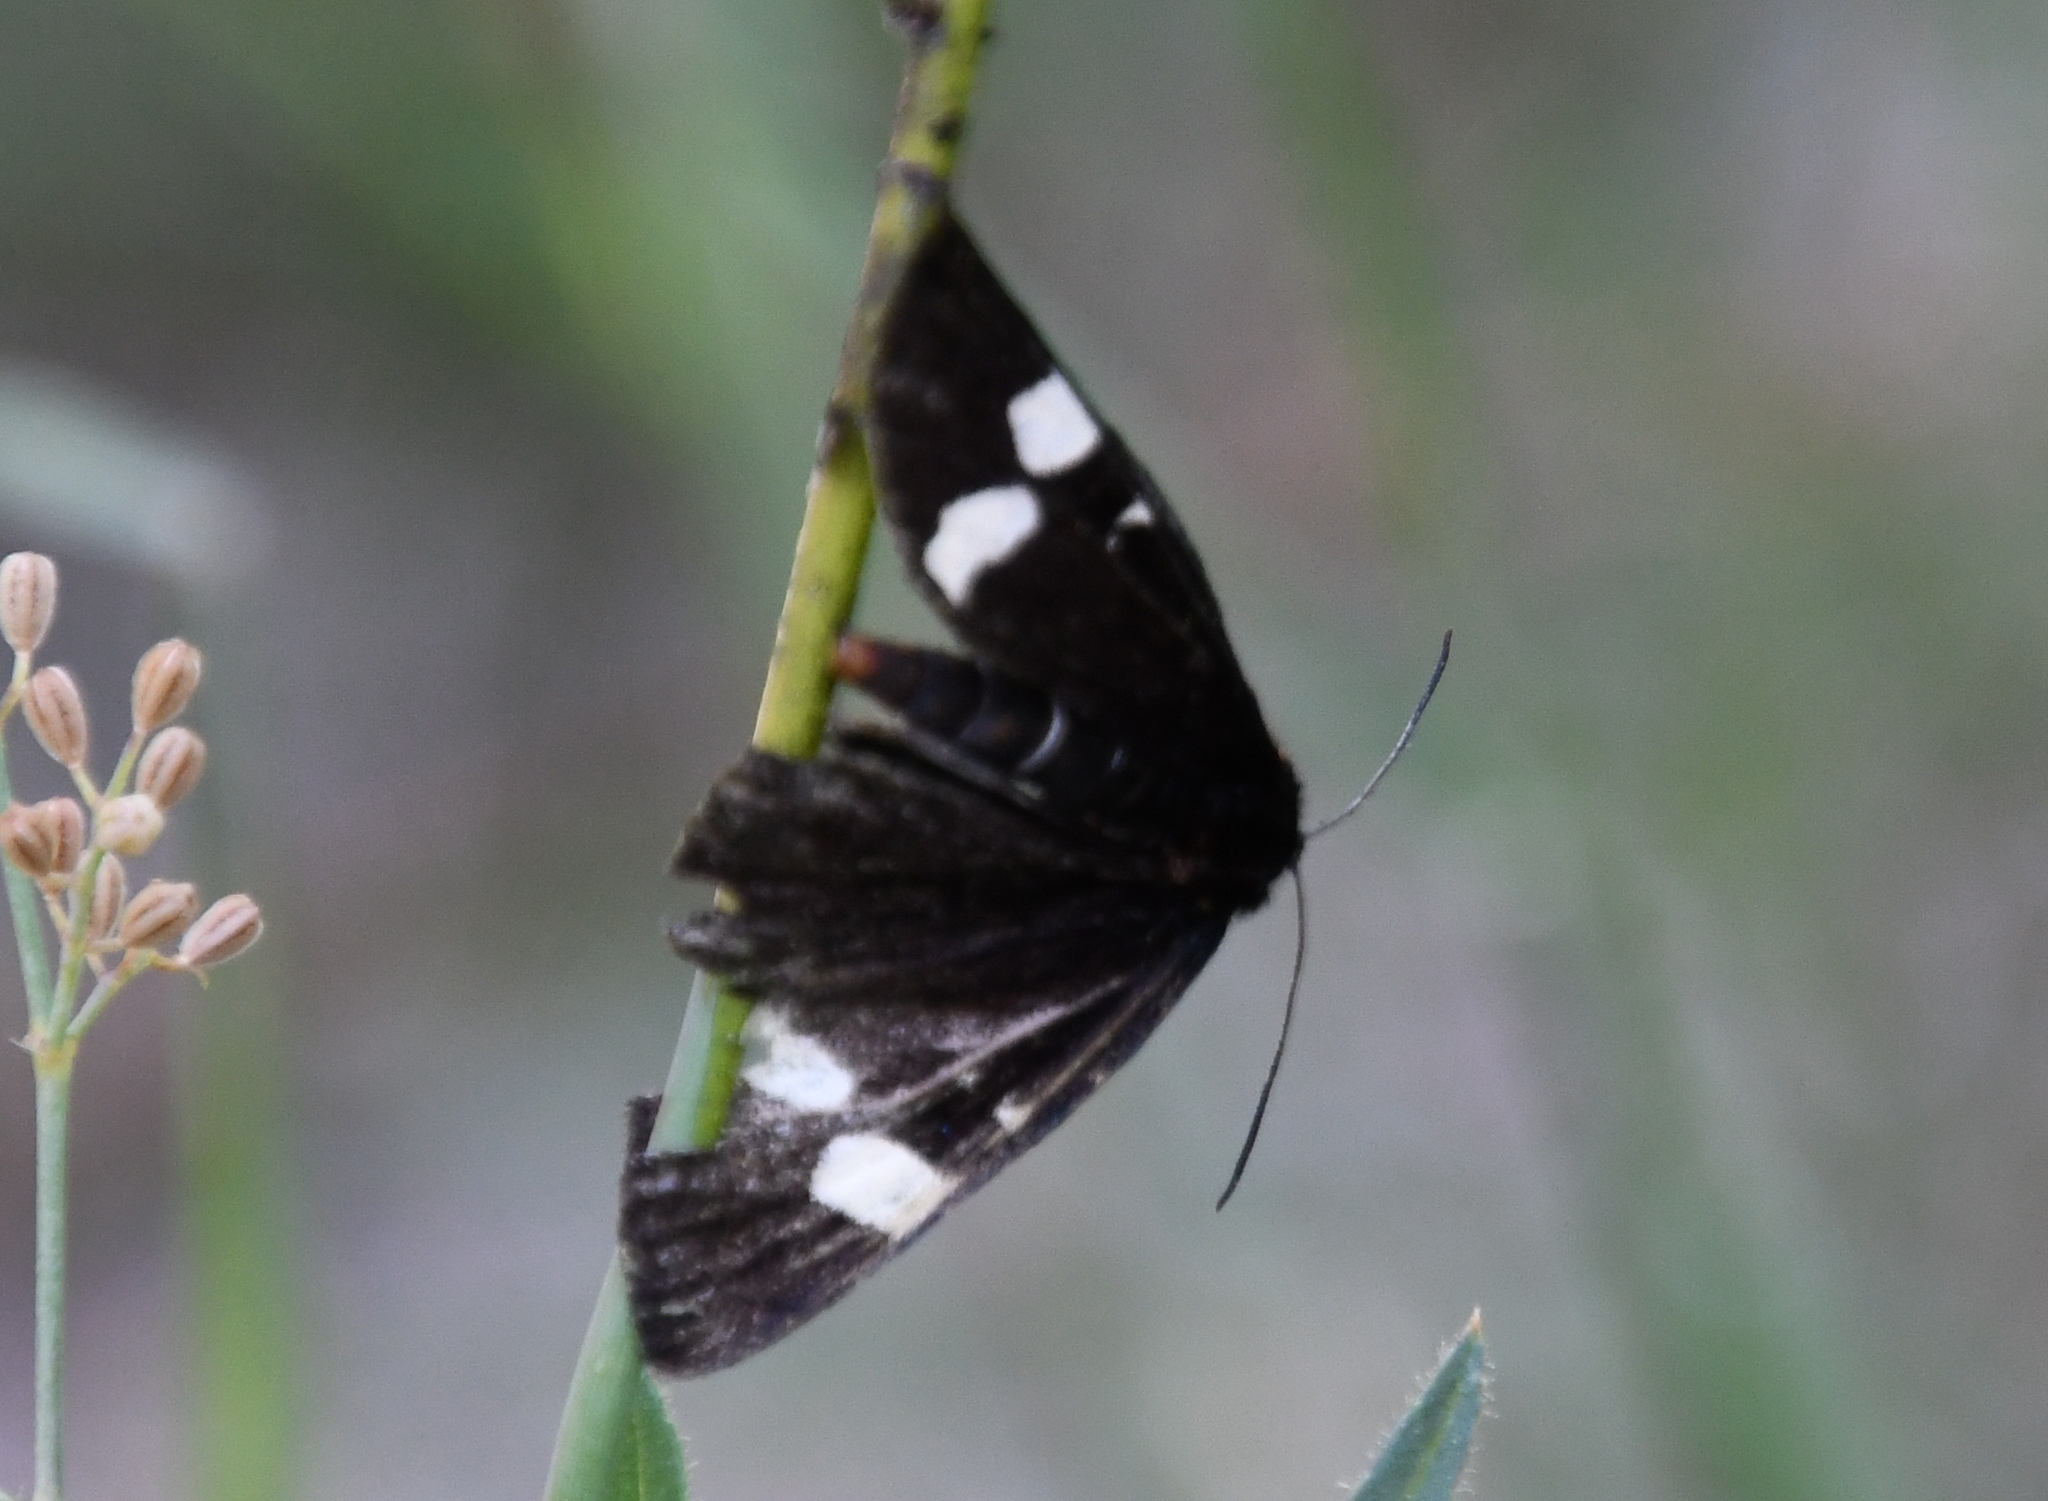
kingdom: Animalia
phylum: Arthropoda
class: Insecta
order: Lepidoptera
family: Noctuidae
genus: Alypiodes
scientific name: Alypiodes geronimo
